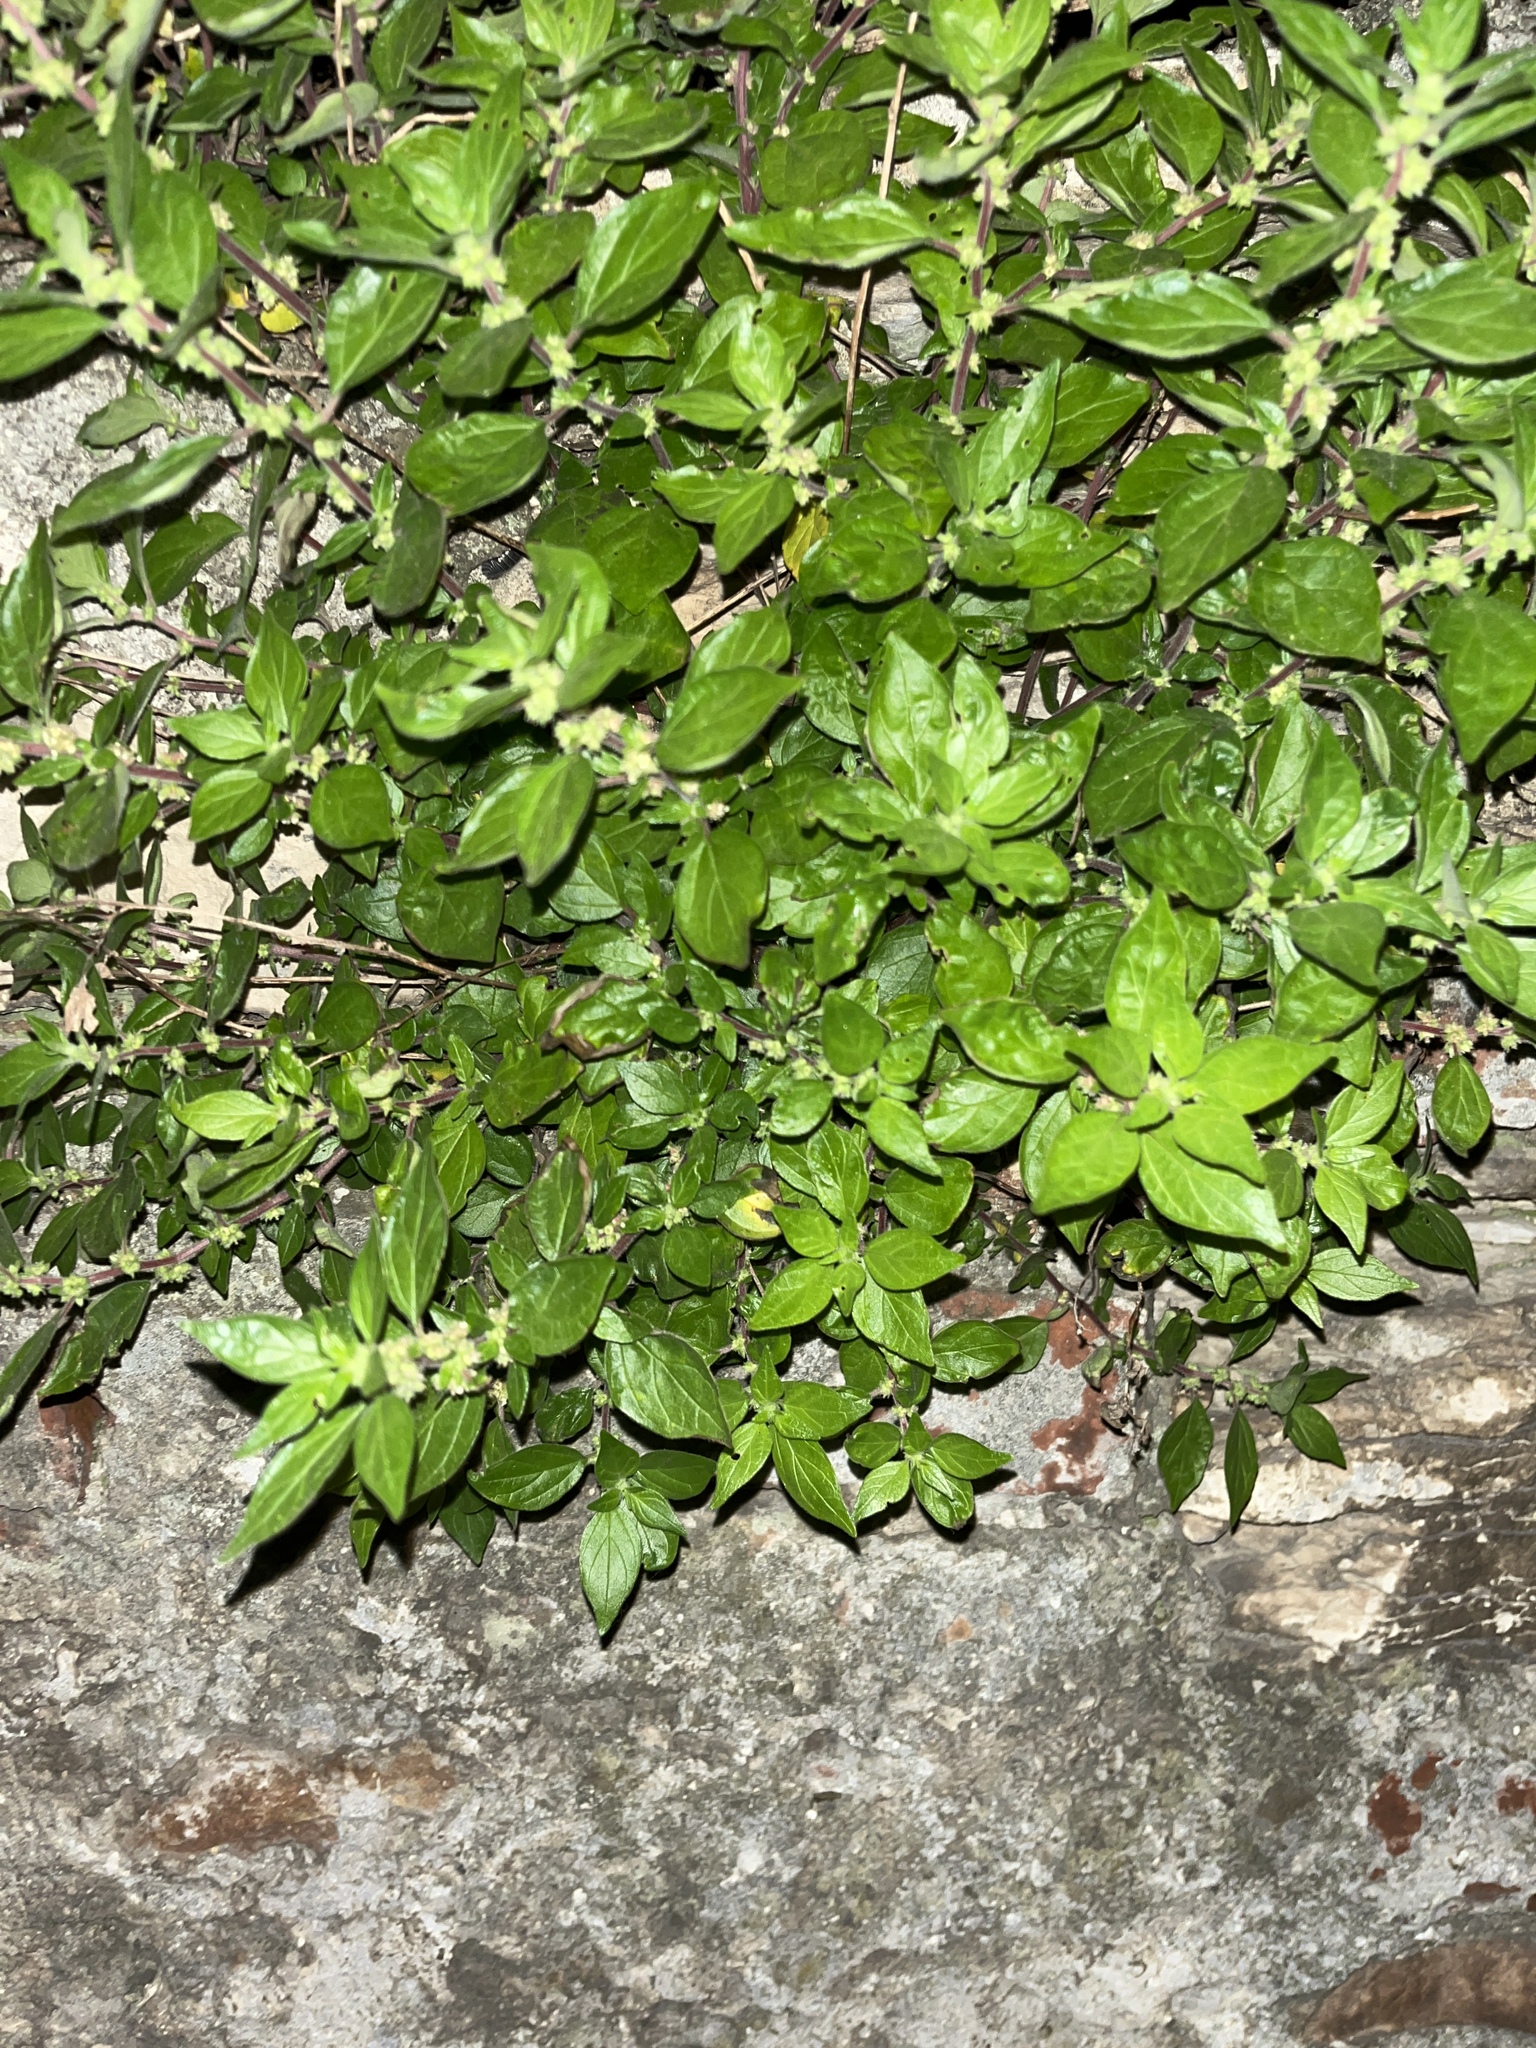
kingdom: Plantae
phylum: Tracheophyta
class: Magnoliopsida
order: Rosales
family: Urticaceae
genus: Parietaria
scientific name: Parietaria judaica
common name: Pellitory-of-the-wall
